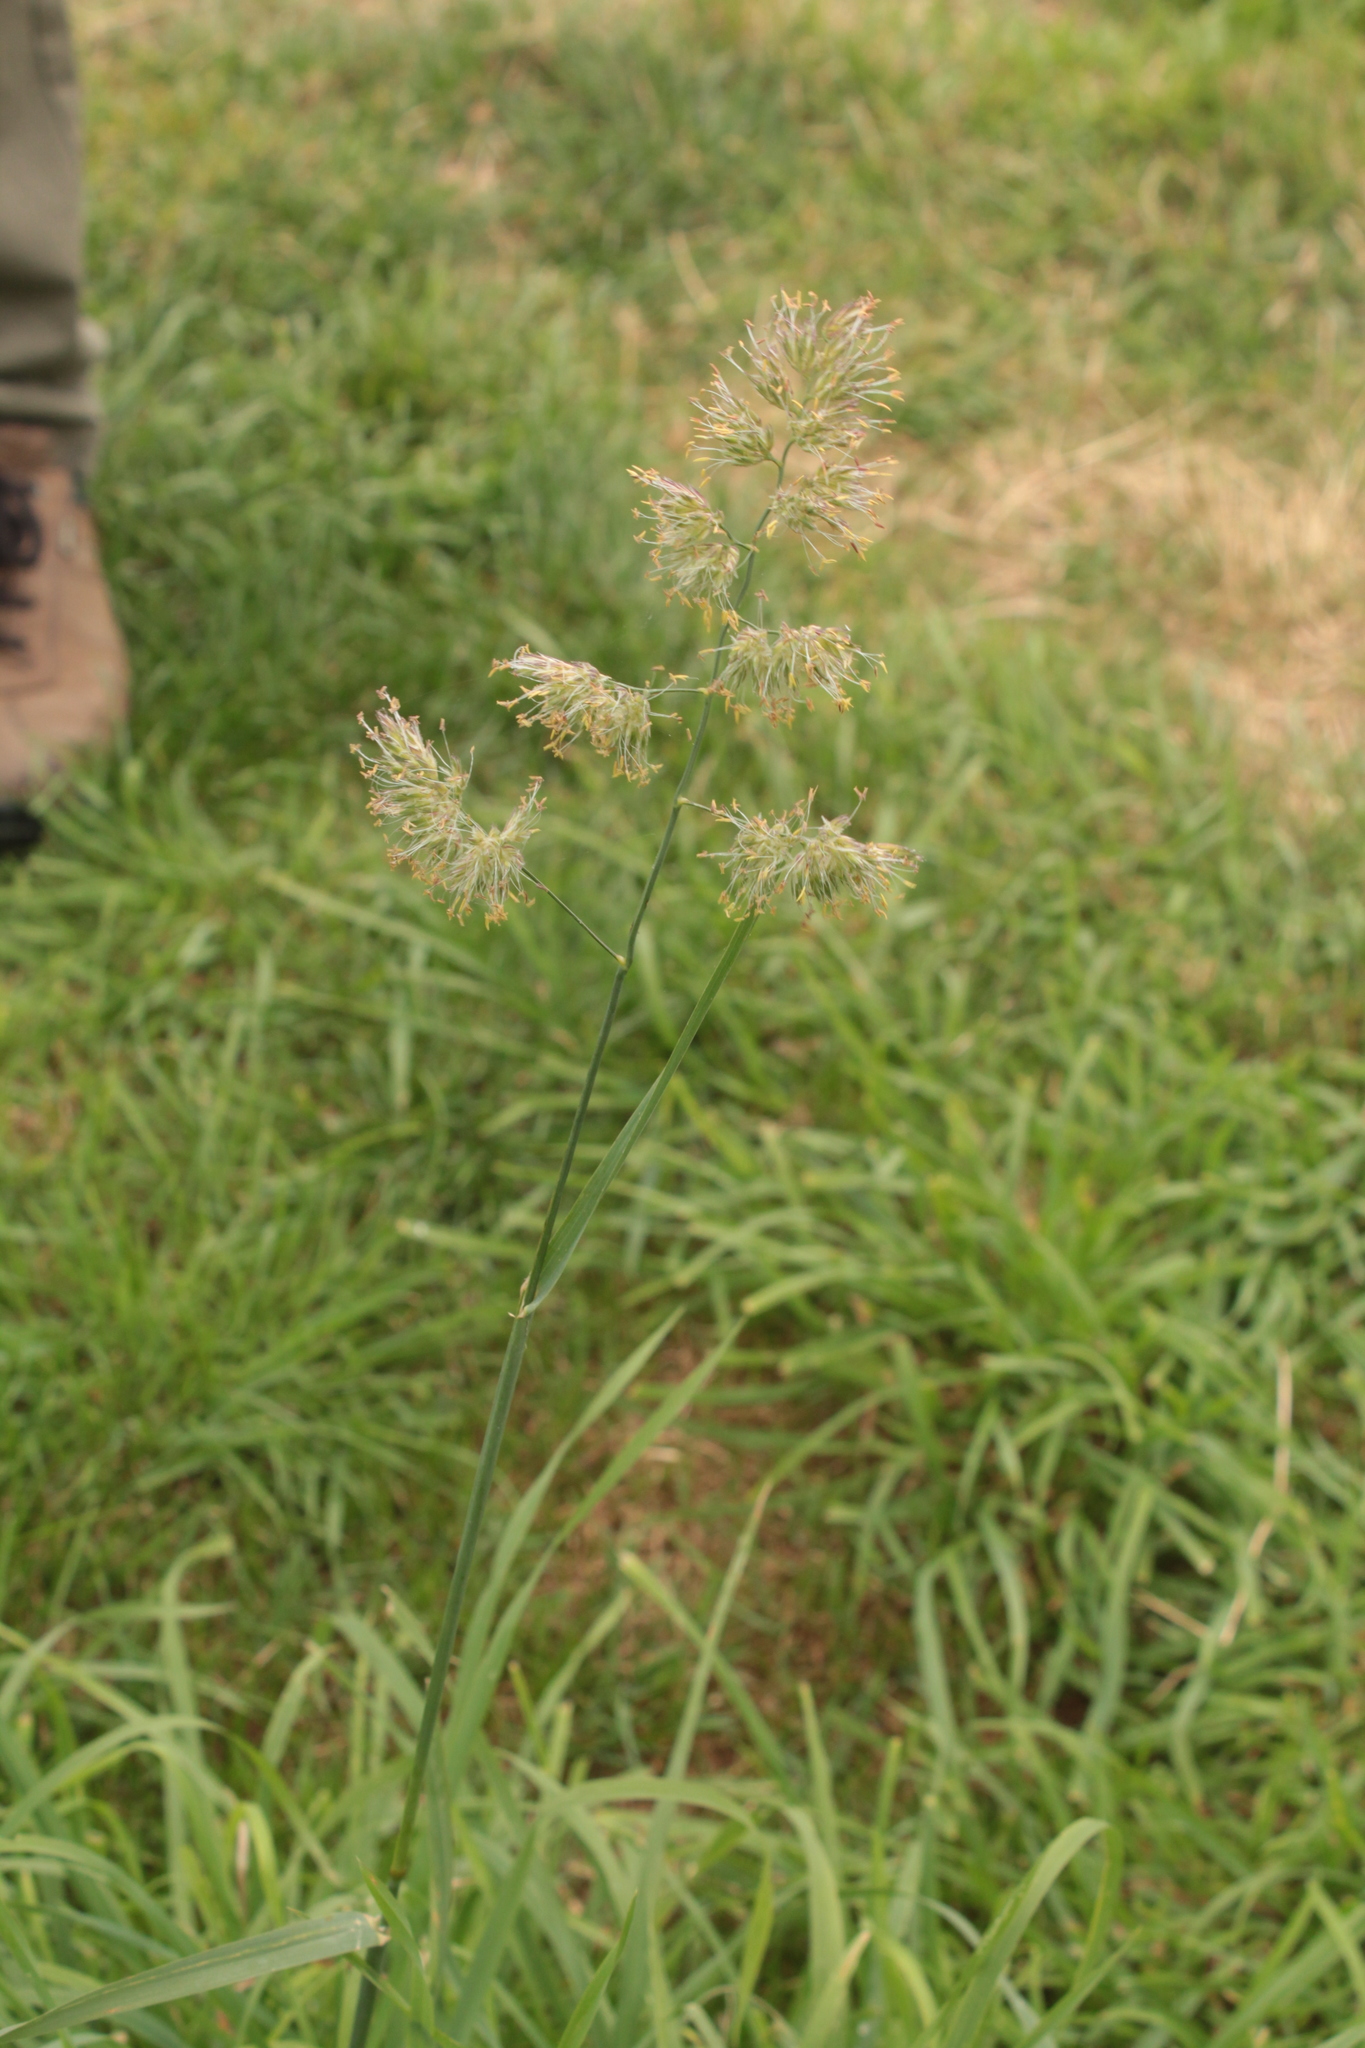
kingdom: Plantae
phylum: Tracheophyta
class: Liliopsida
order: Poales
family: Poaceae
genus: Dactylis
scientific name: Dactylis glomerata
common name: Orchardgrass
